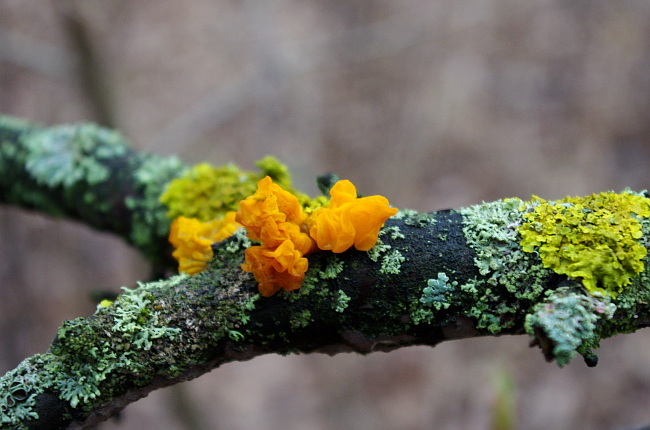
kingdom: Fungi
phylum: Basidiomycota
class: Tremellomycetes
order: Tremellales
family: Tremellaceae
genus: Tremella
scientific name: Tremella mesenterica
